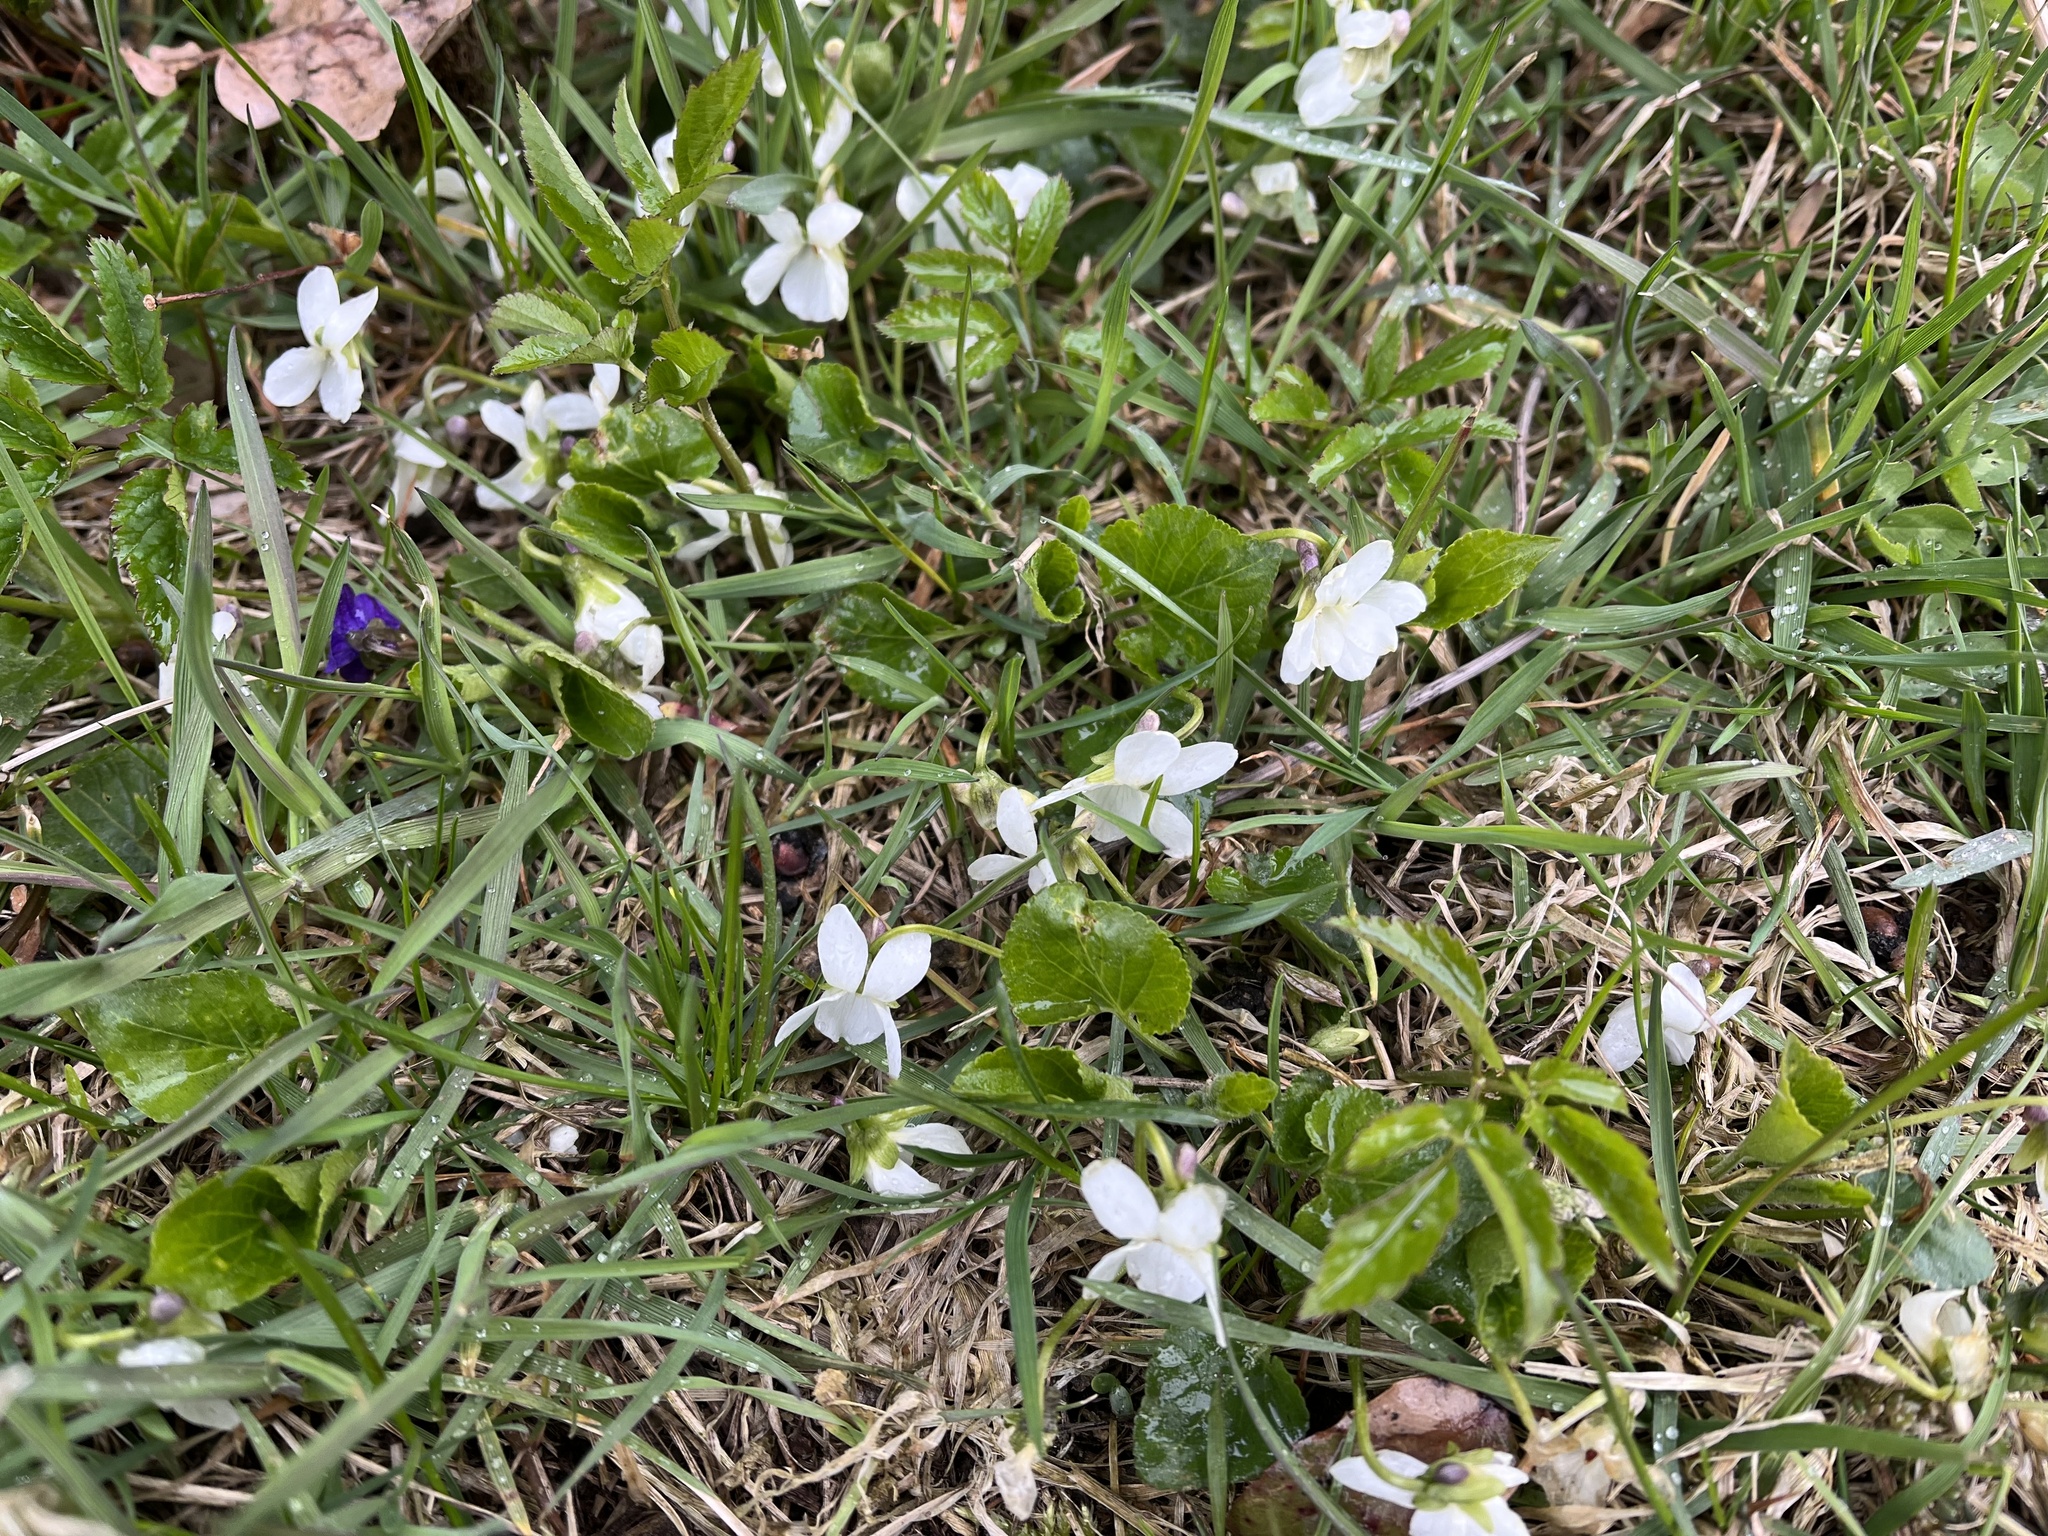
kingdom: Plantae
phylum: Tracheophyta
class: Magnoliopsida
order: Malpighiales
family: Violaceae
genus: Viola
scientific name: Viola odorata
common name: Sweet violet
